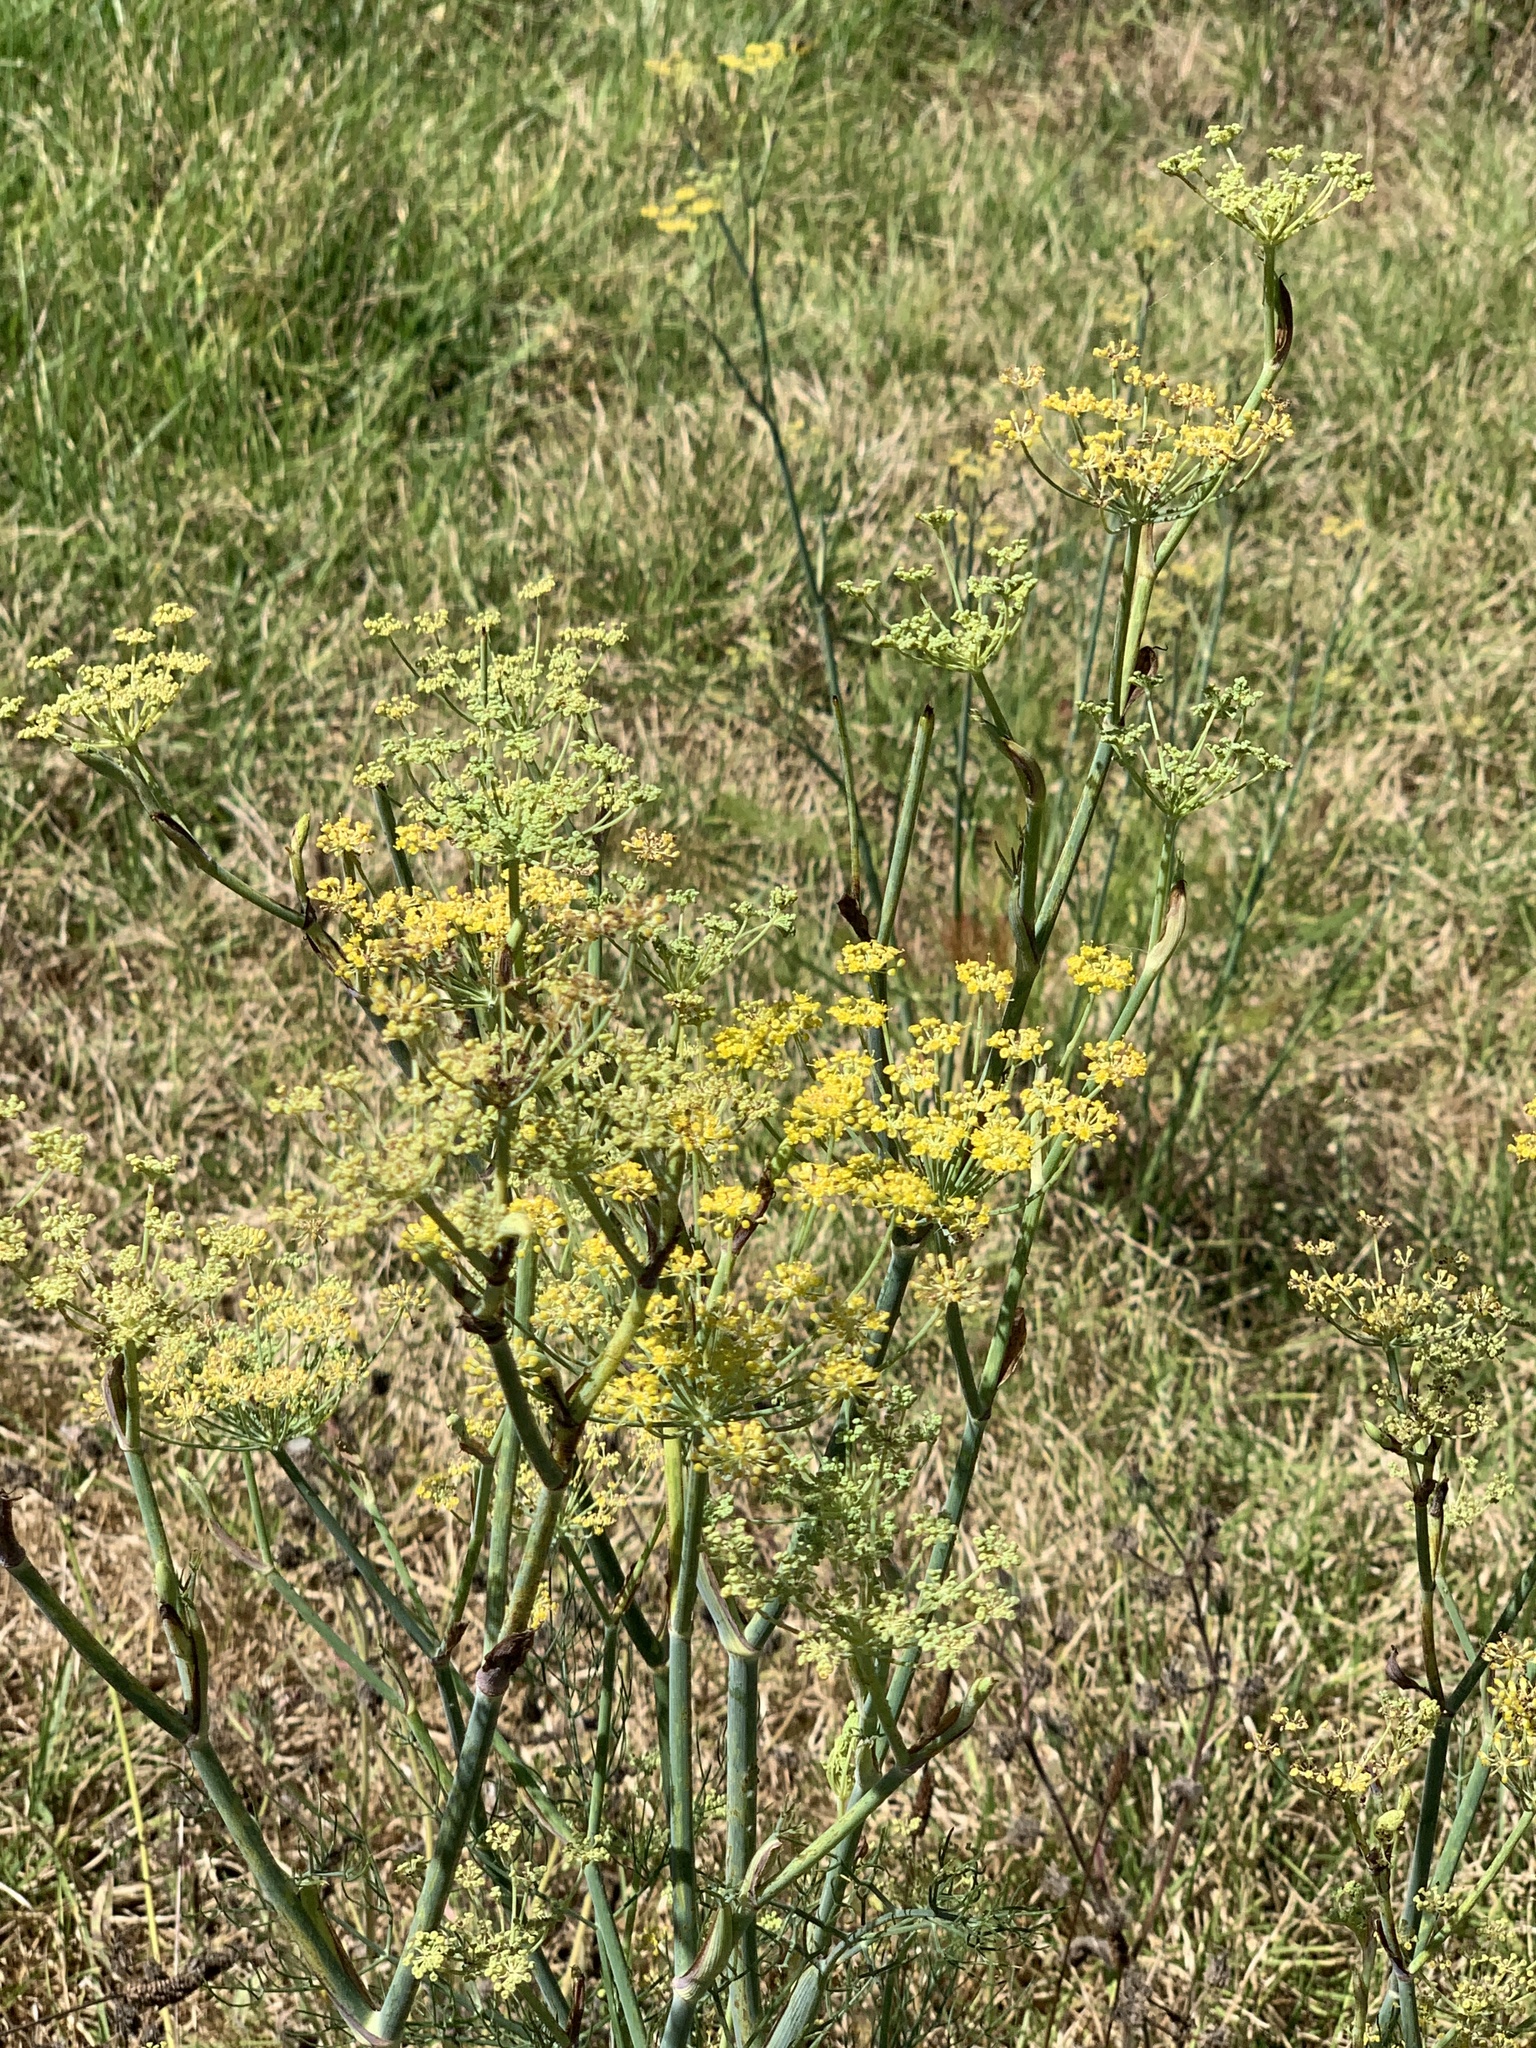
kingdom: Plantae
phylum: Tracheophyta
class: Magnoliopsida
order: Apiales
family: Apiaceae
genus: Foeniculum
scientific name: Foeniculum vulgare
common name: Fennel
